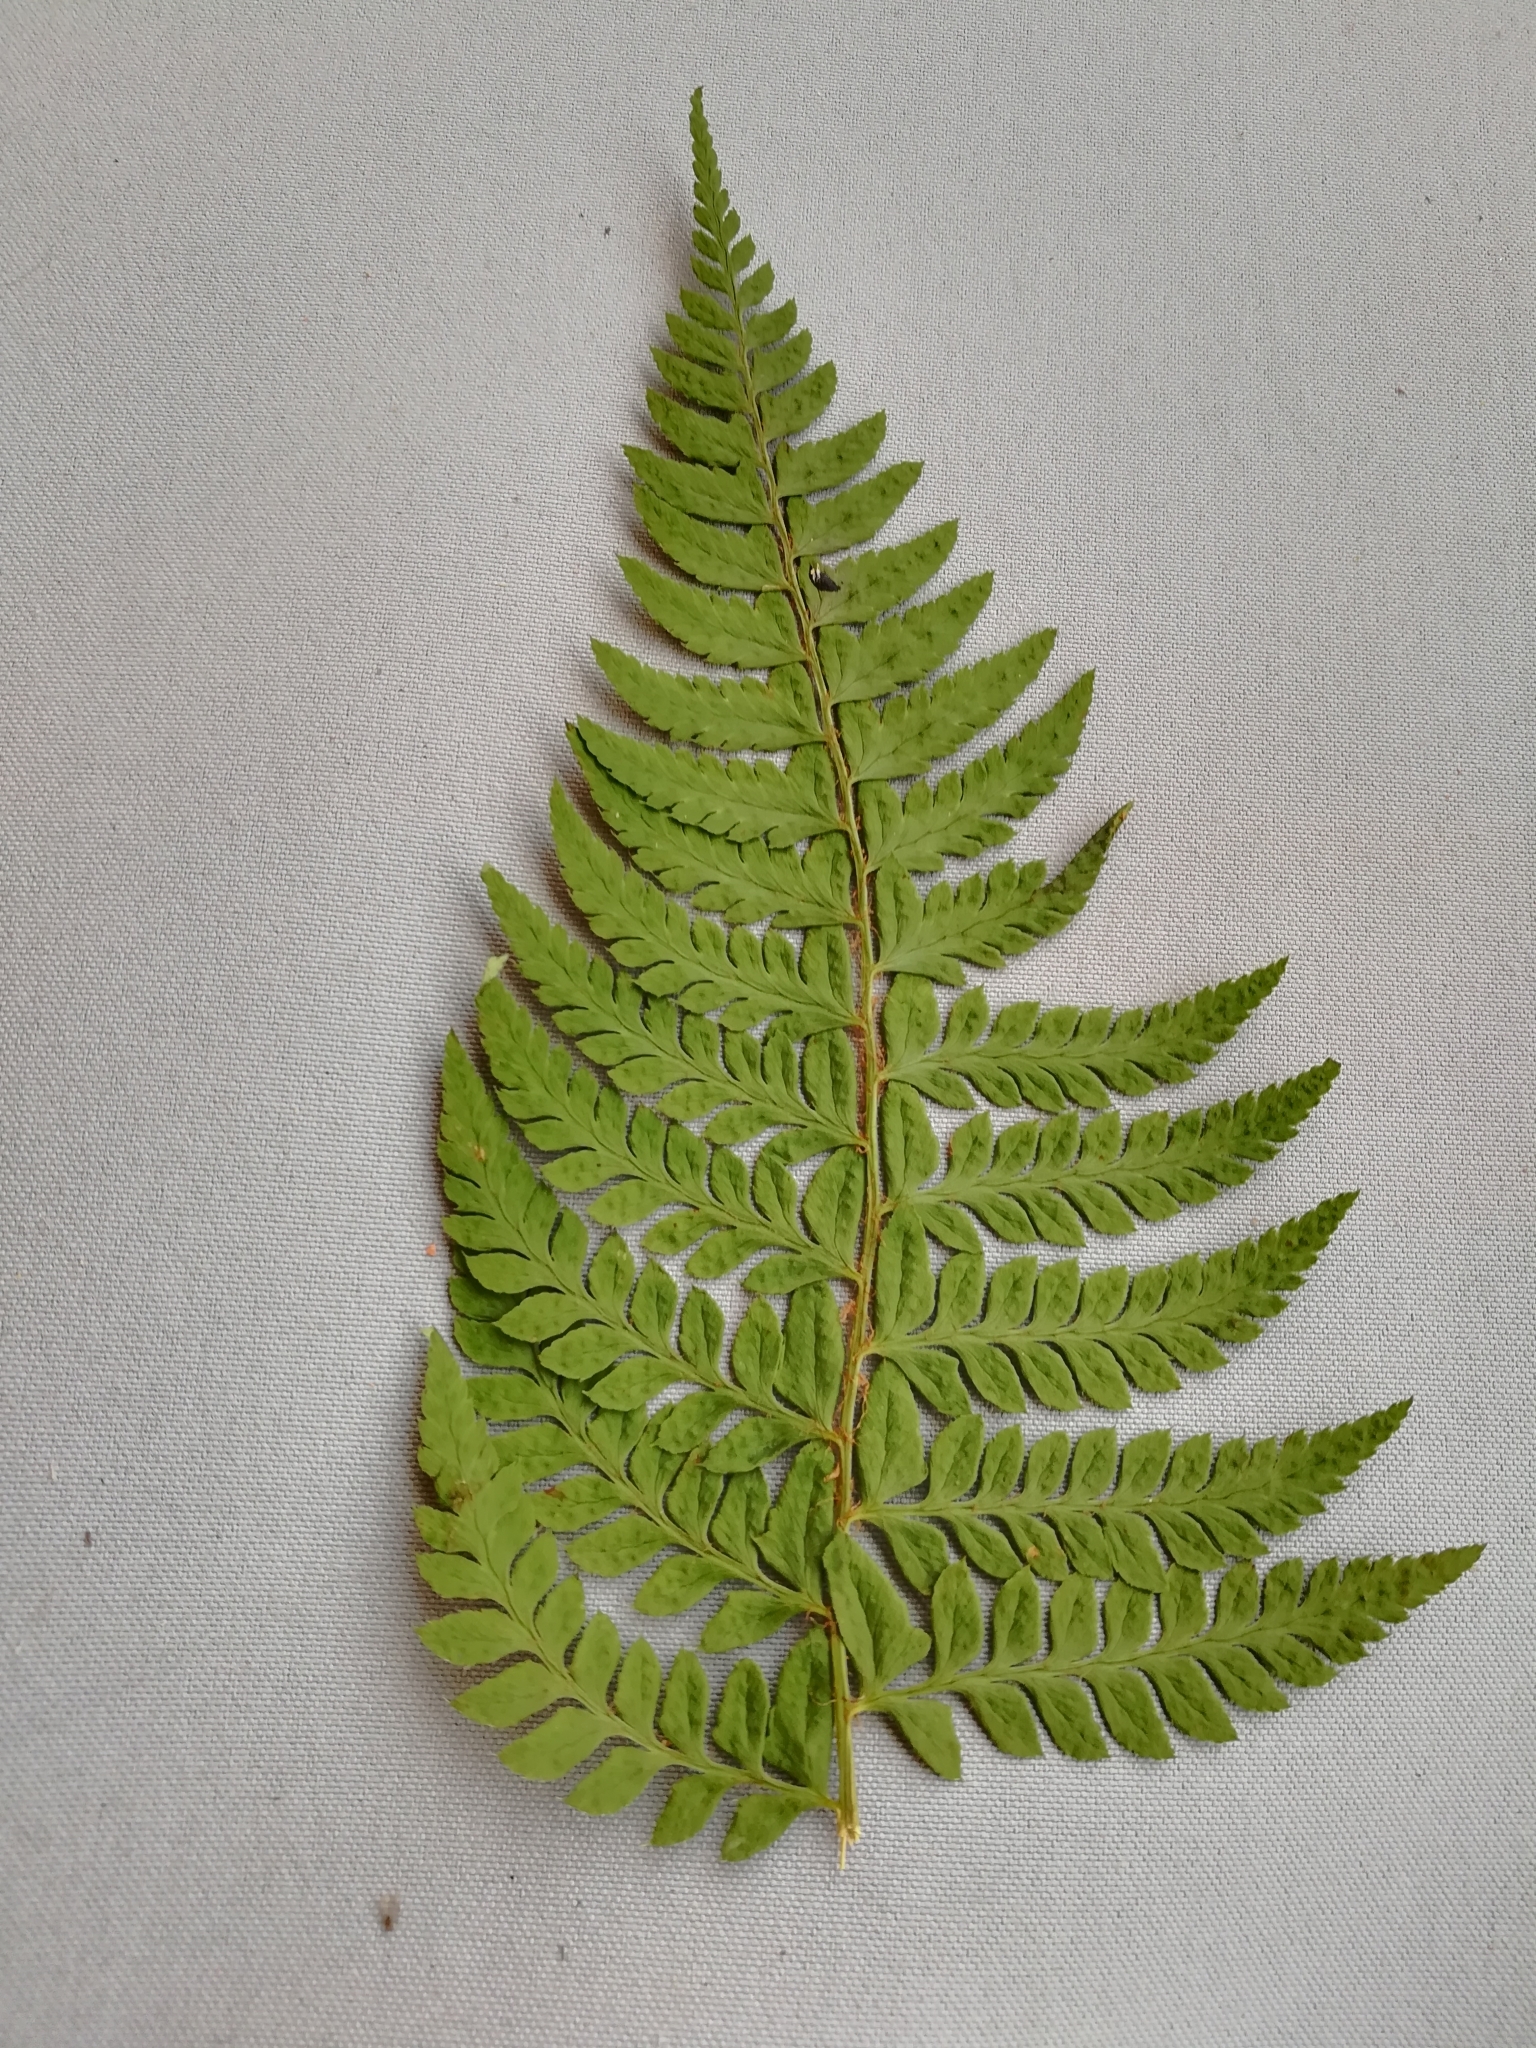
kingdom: Plantae
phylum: Tracheophyta
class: Polypodiopsida
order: Polypodiales
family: Dryopteridaceae
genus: Polystichum
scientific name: Polystichum aculeatum
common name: Hard shield-fern
